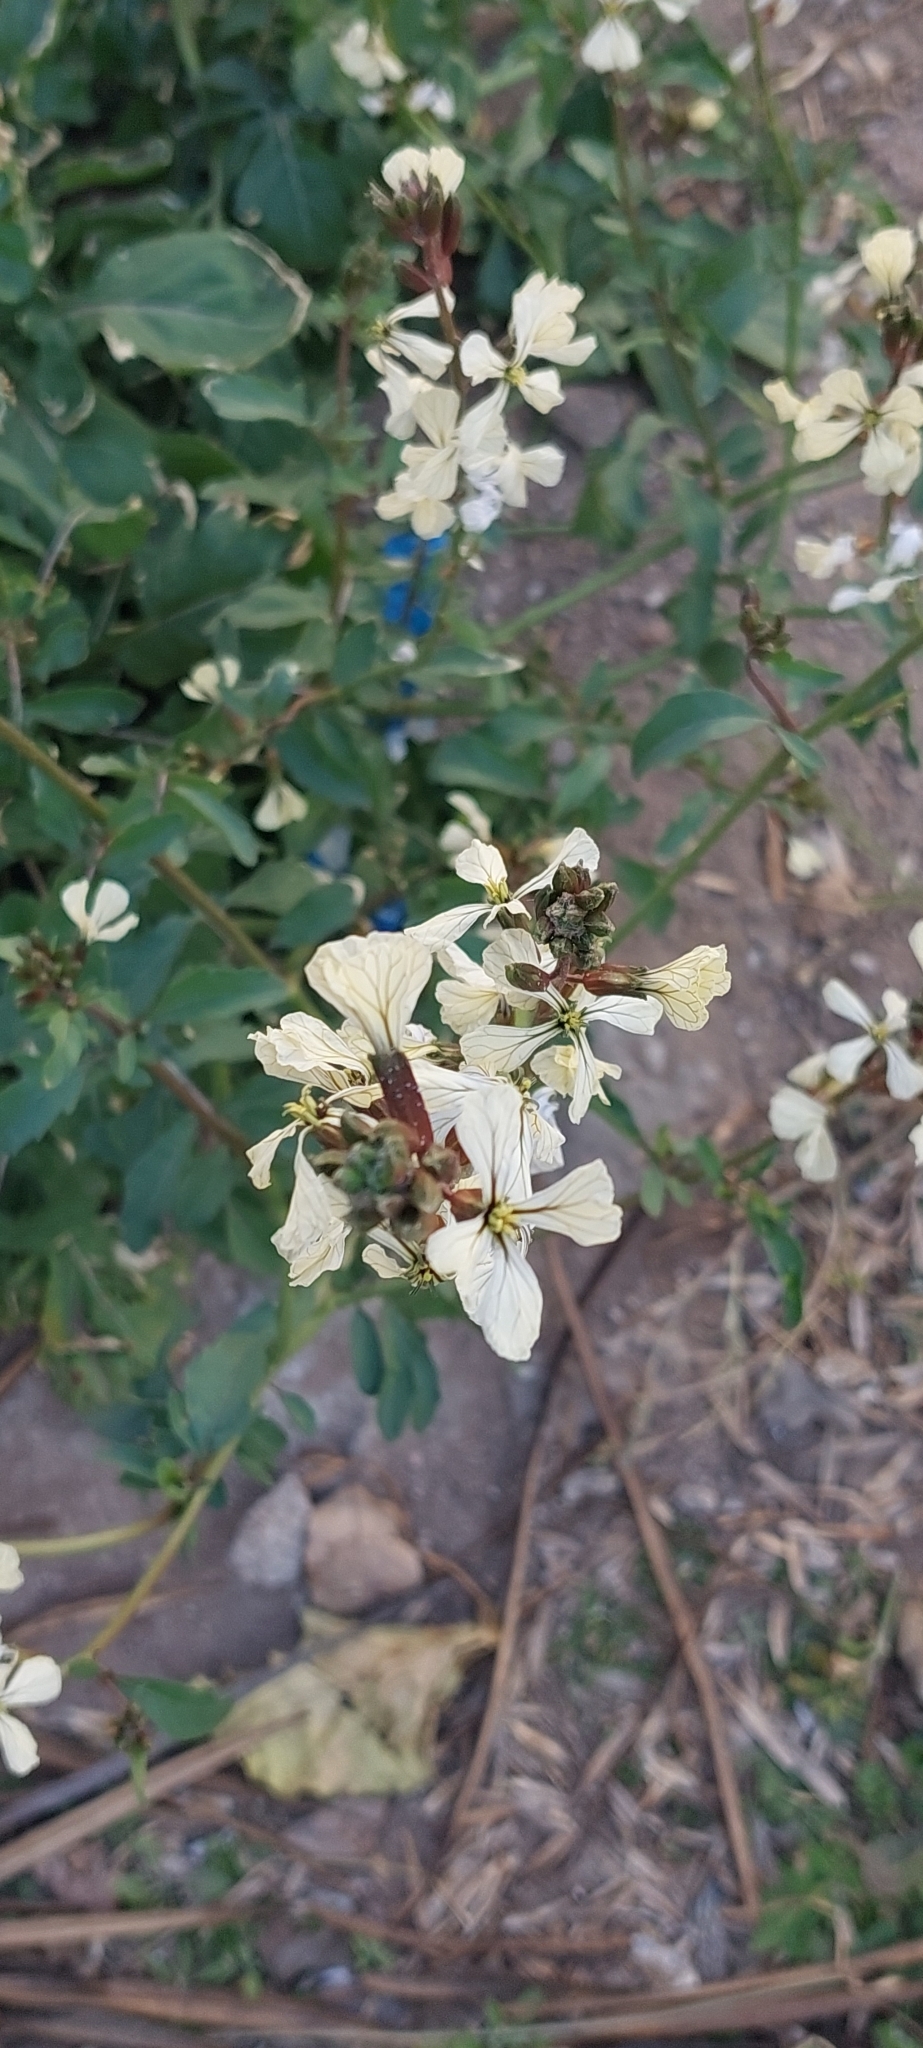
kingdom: Plantae
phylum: Tracheophyta
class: Magnoliopsida
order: Brassicales
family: Brassicaceae
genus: Eruca
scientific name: Eruca vesicaria
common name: Garden rocket
